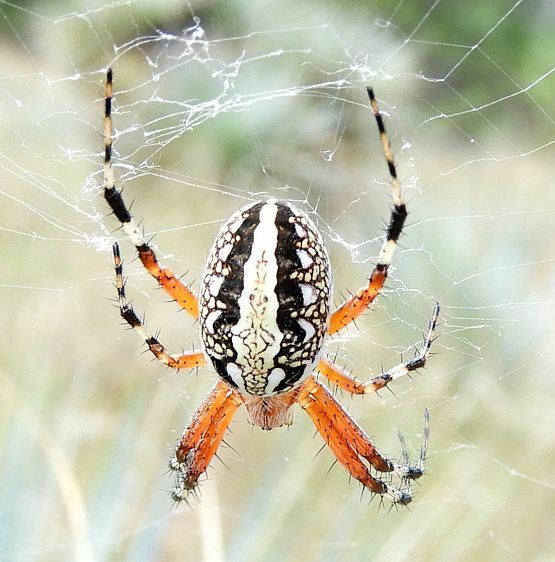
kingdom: Animalia
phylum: Arthropoda
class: Arachnida
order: Araneae
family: Araneidae
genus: Neoscona
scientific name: Neoscona oaxacensis
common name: Orb weavers
